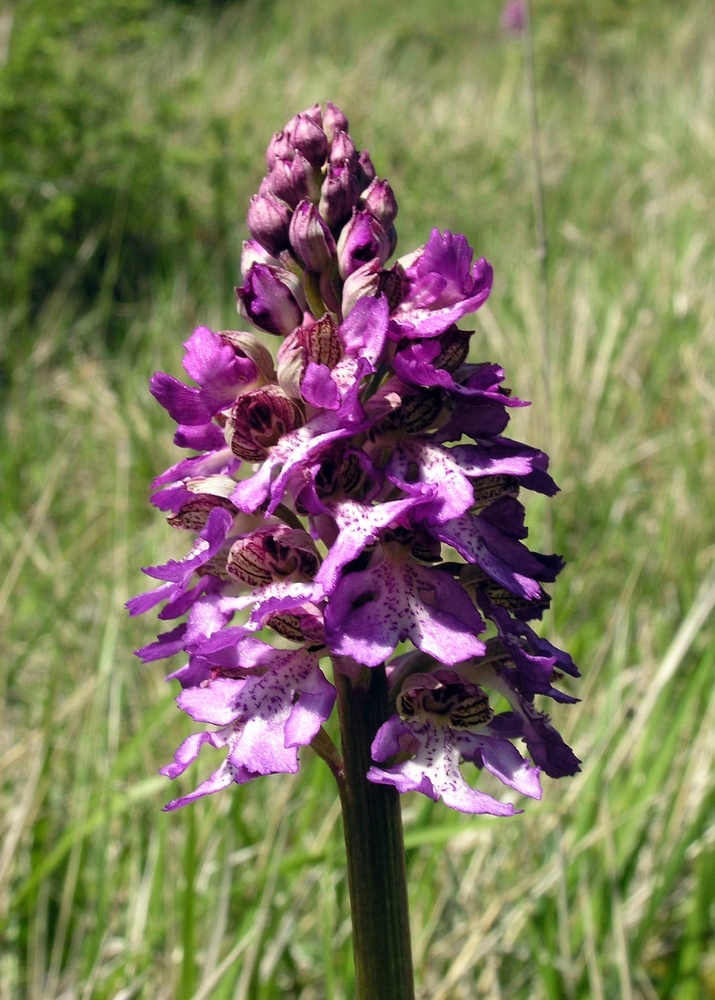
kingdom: Plantae
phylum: Tracheophyta
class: Liliopsida
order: Asparagales
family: Orchidaceae
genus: Orchis
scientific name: Orchis hybrida
